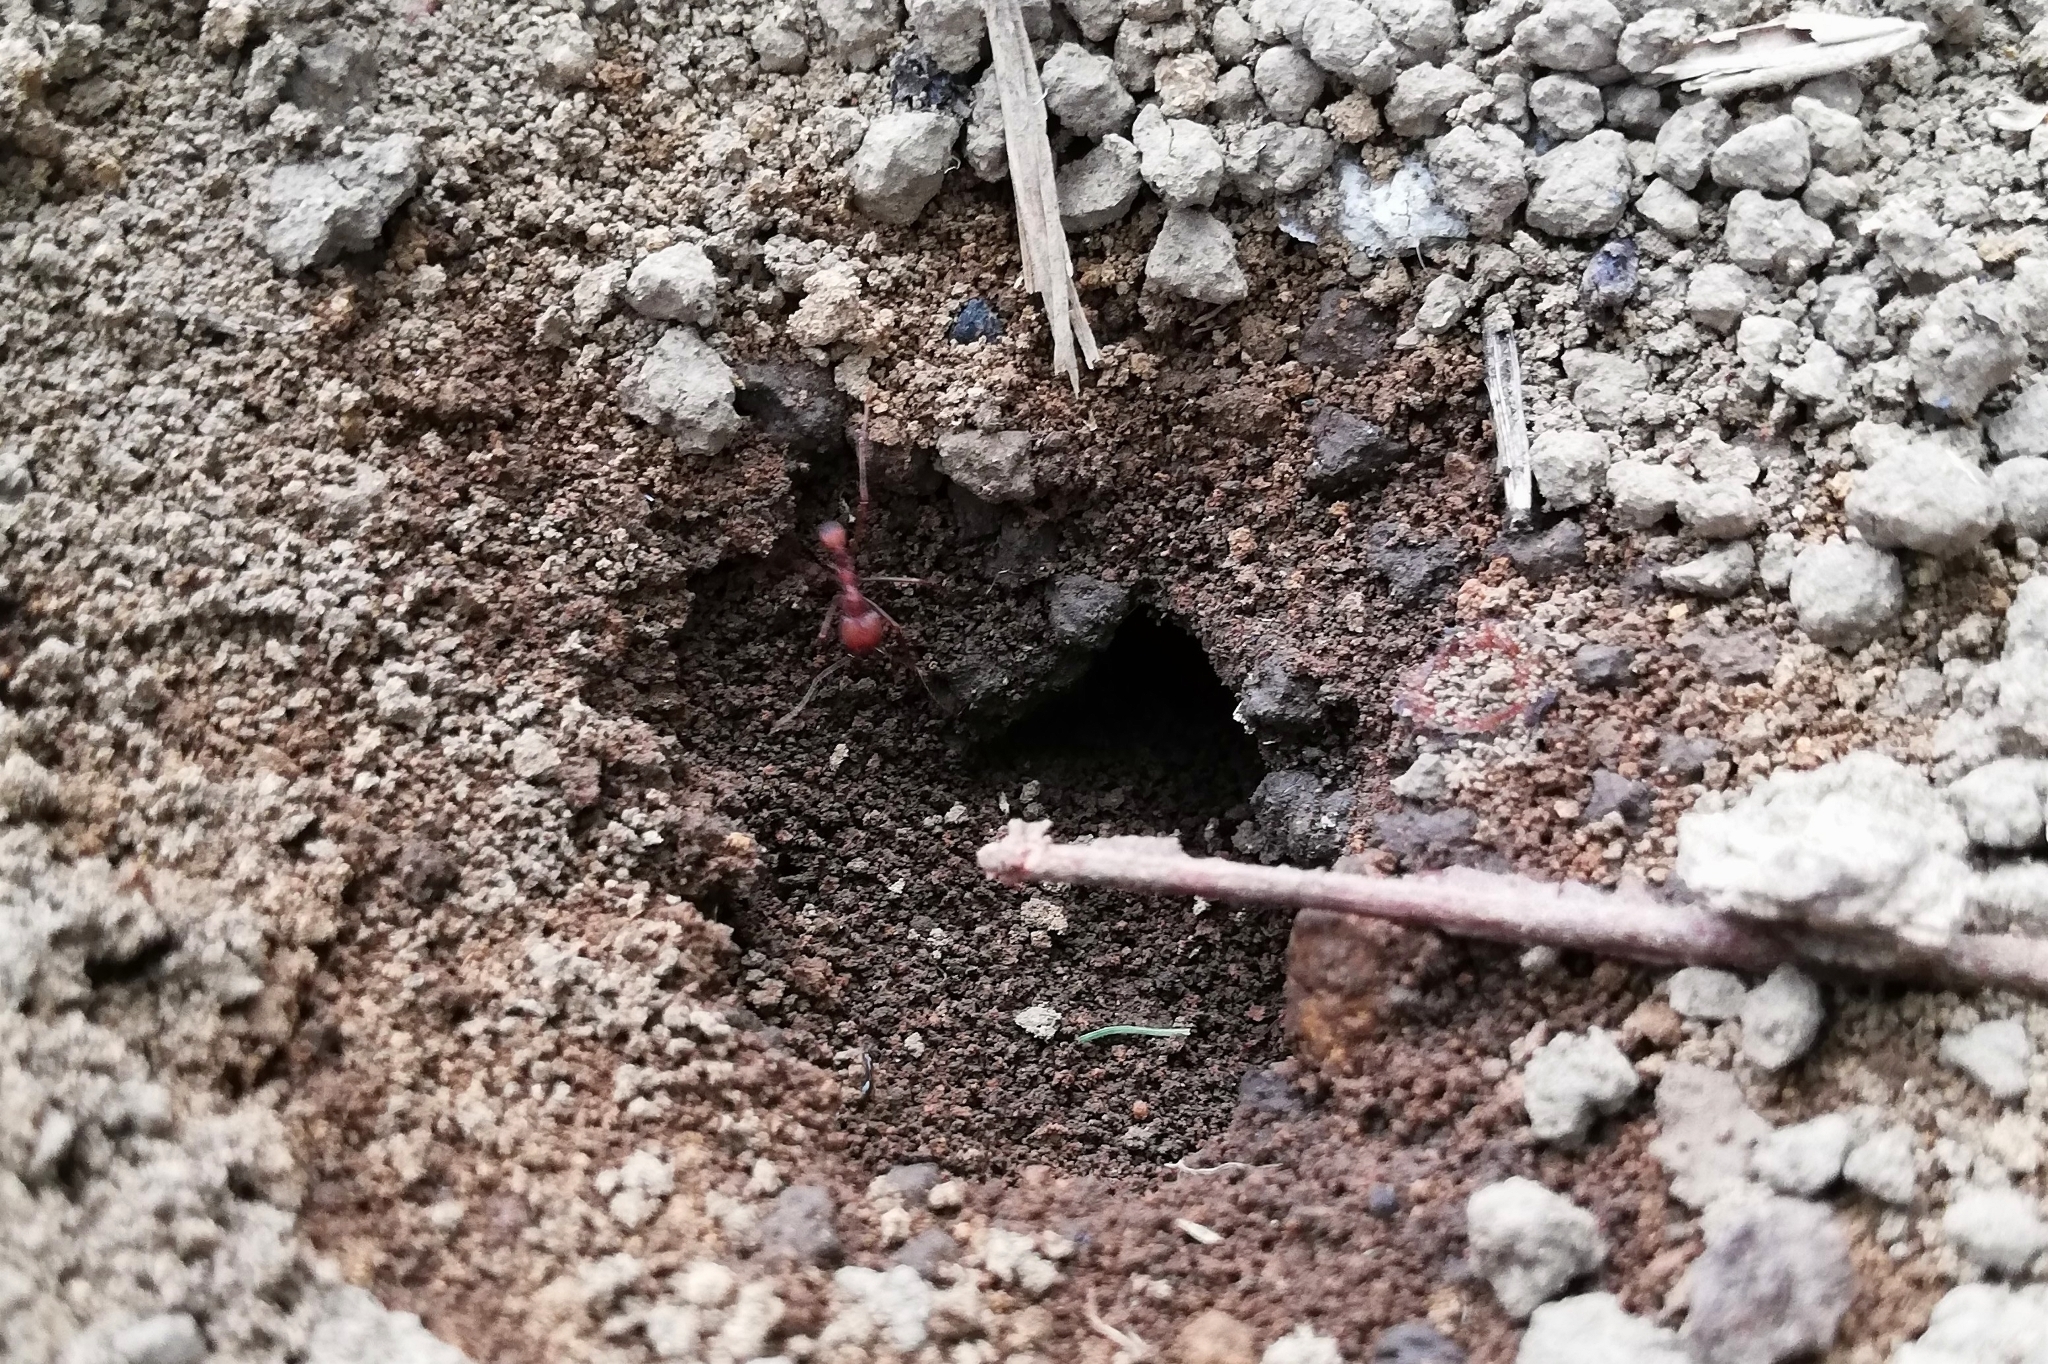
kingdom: Animalia
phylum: Arthropoda
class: Insecta
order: Hymenoptera
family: Formicidae
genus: Atta
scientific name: Atta cephalotes
